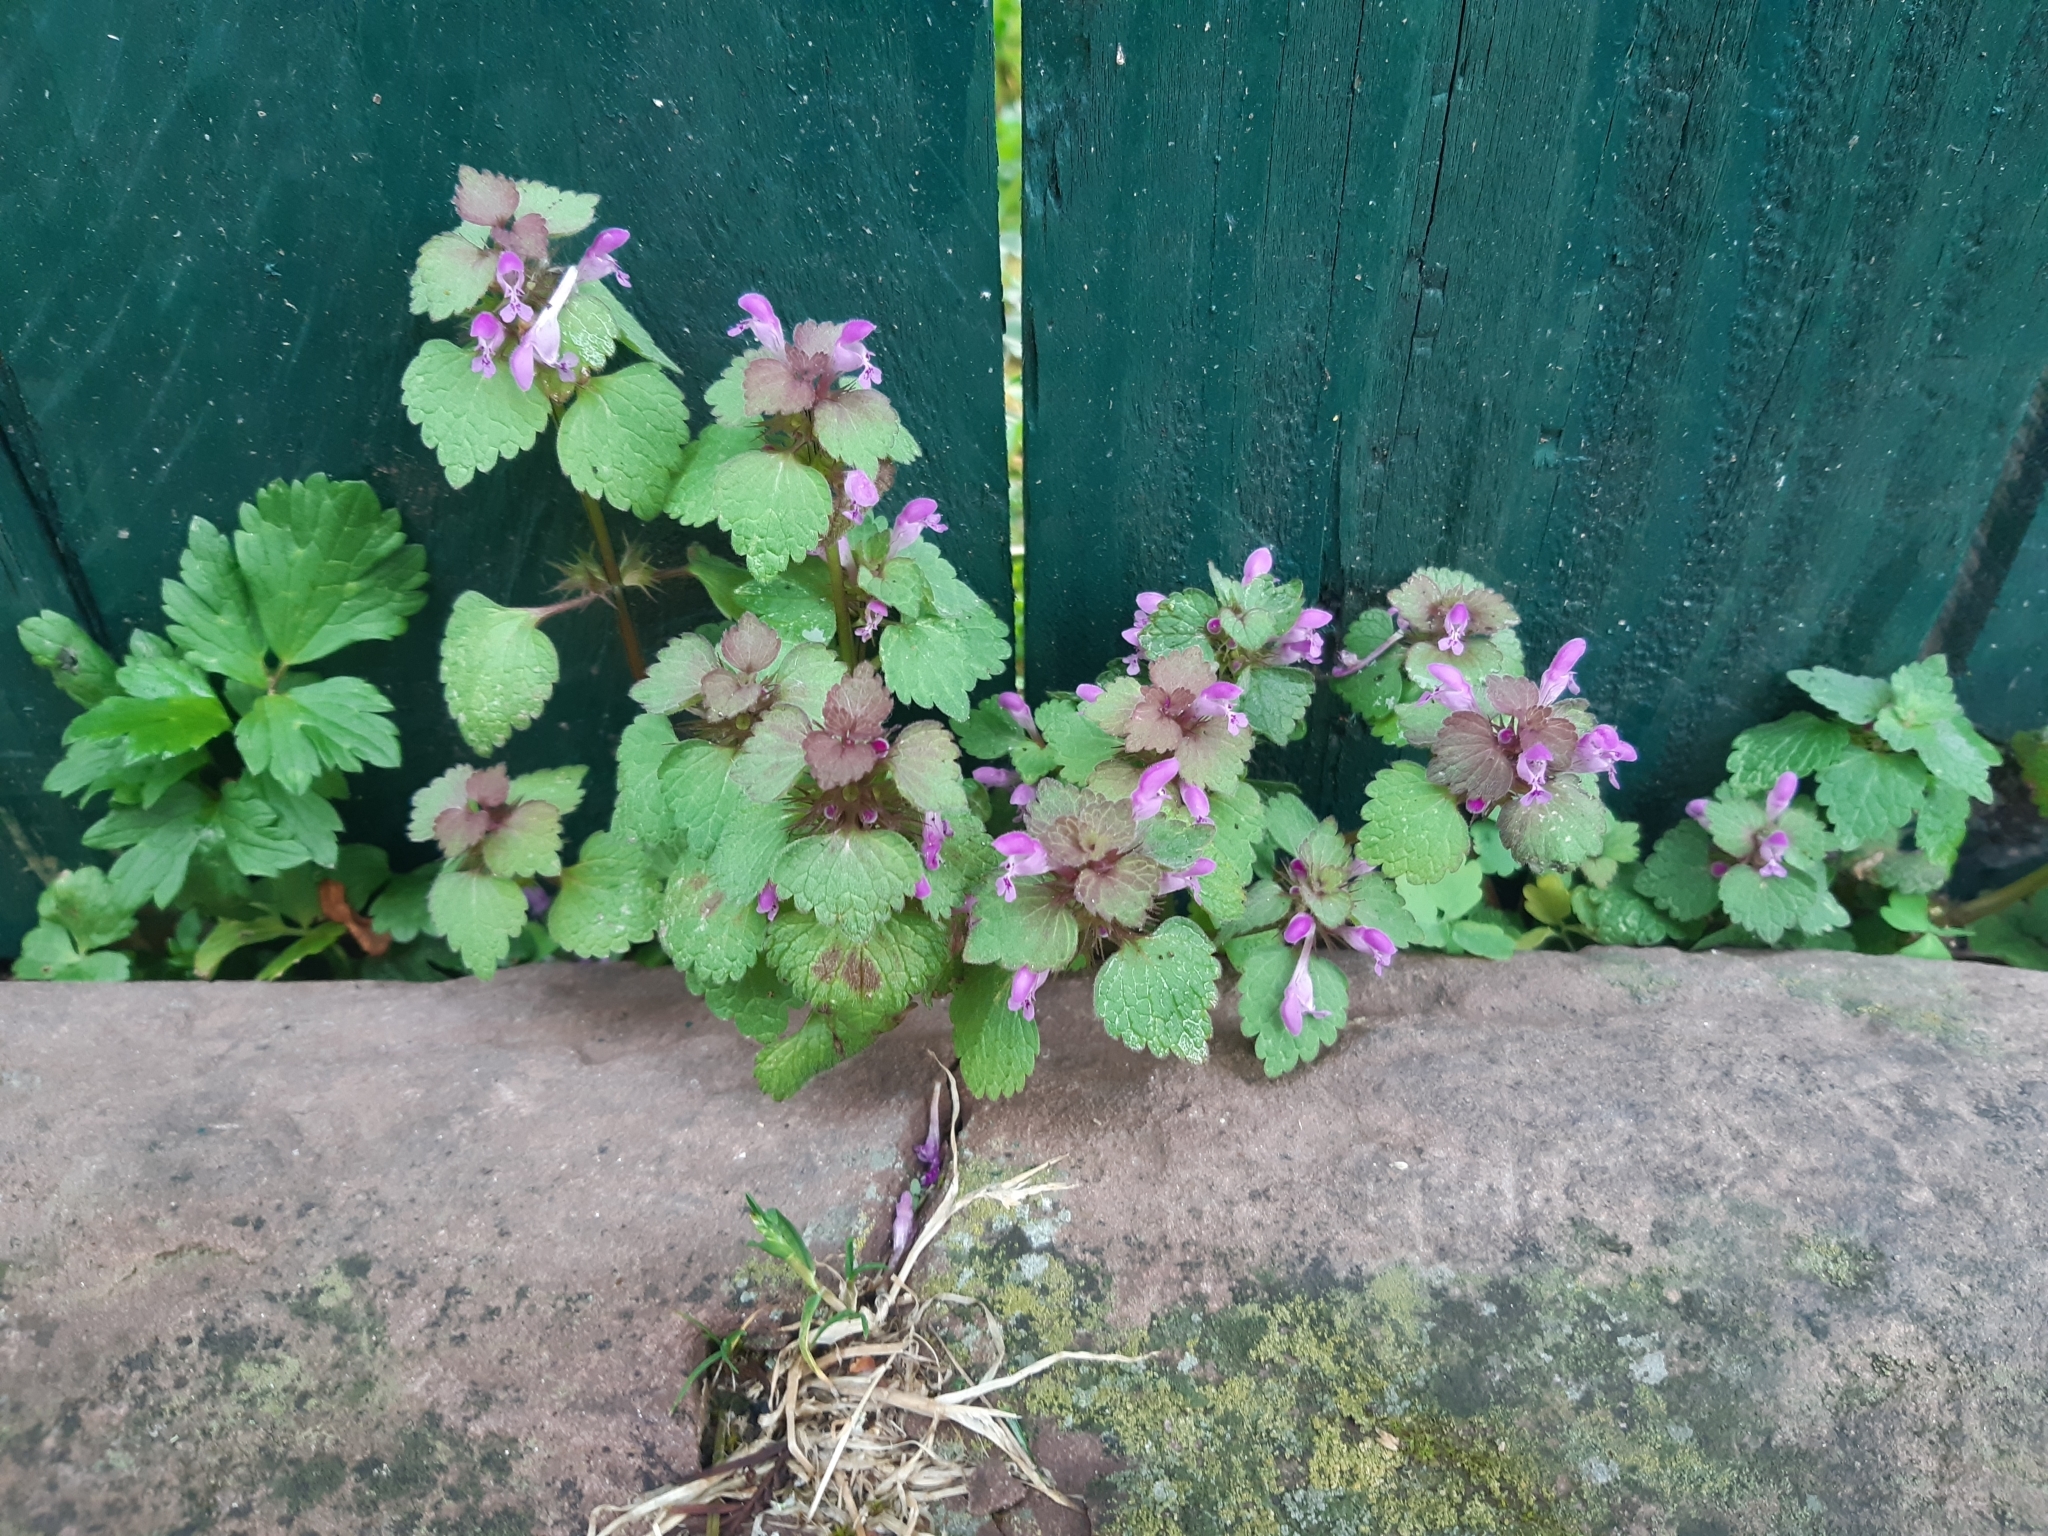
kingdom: Plantae
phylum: Tracheophyta
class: Magnoliopsida
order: Lamiales
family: Lamiaceae
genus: Lamium
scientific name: Lamium purpureum
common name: Red dead-nettle
